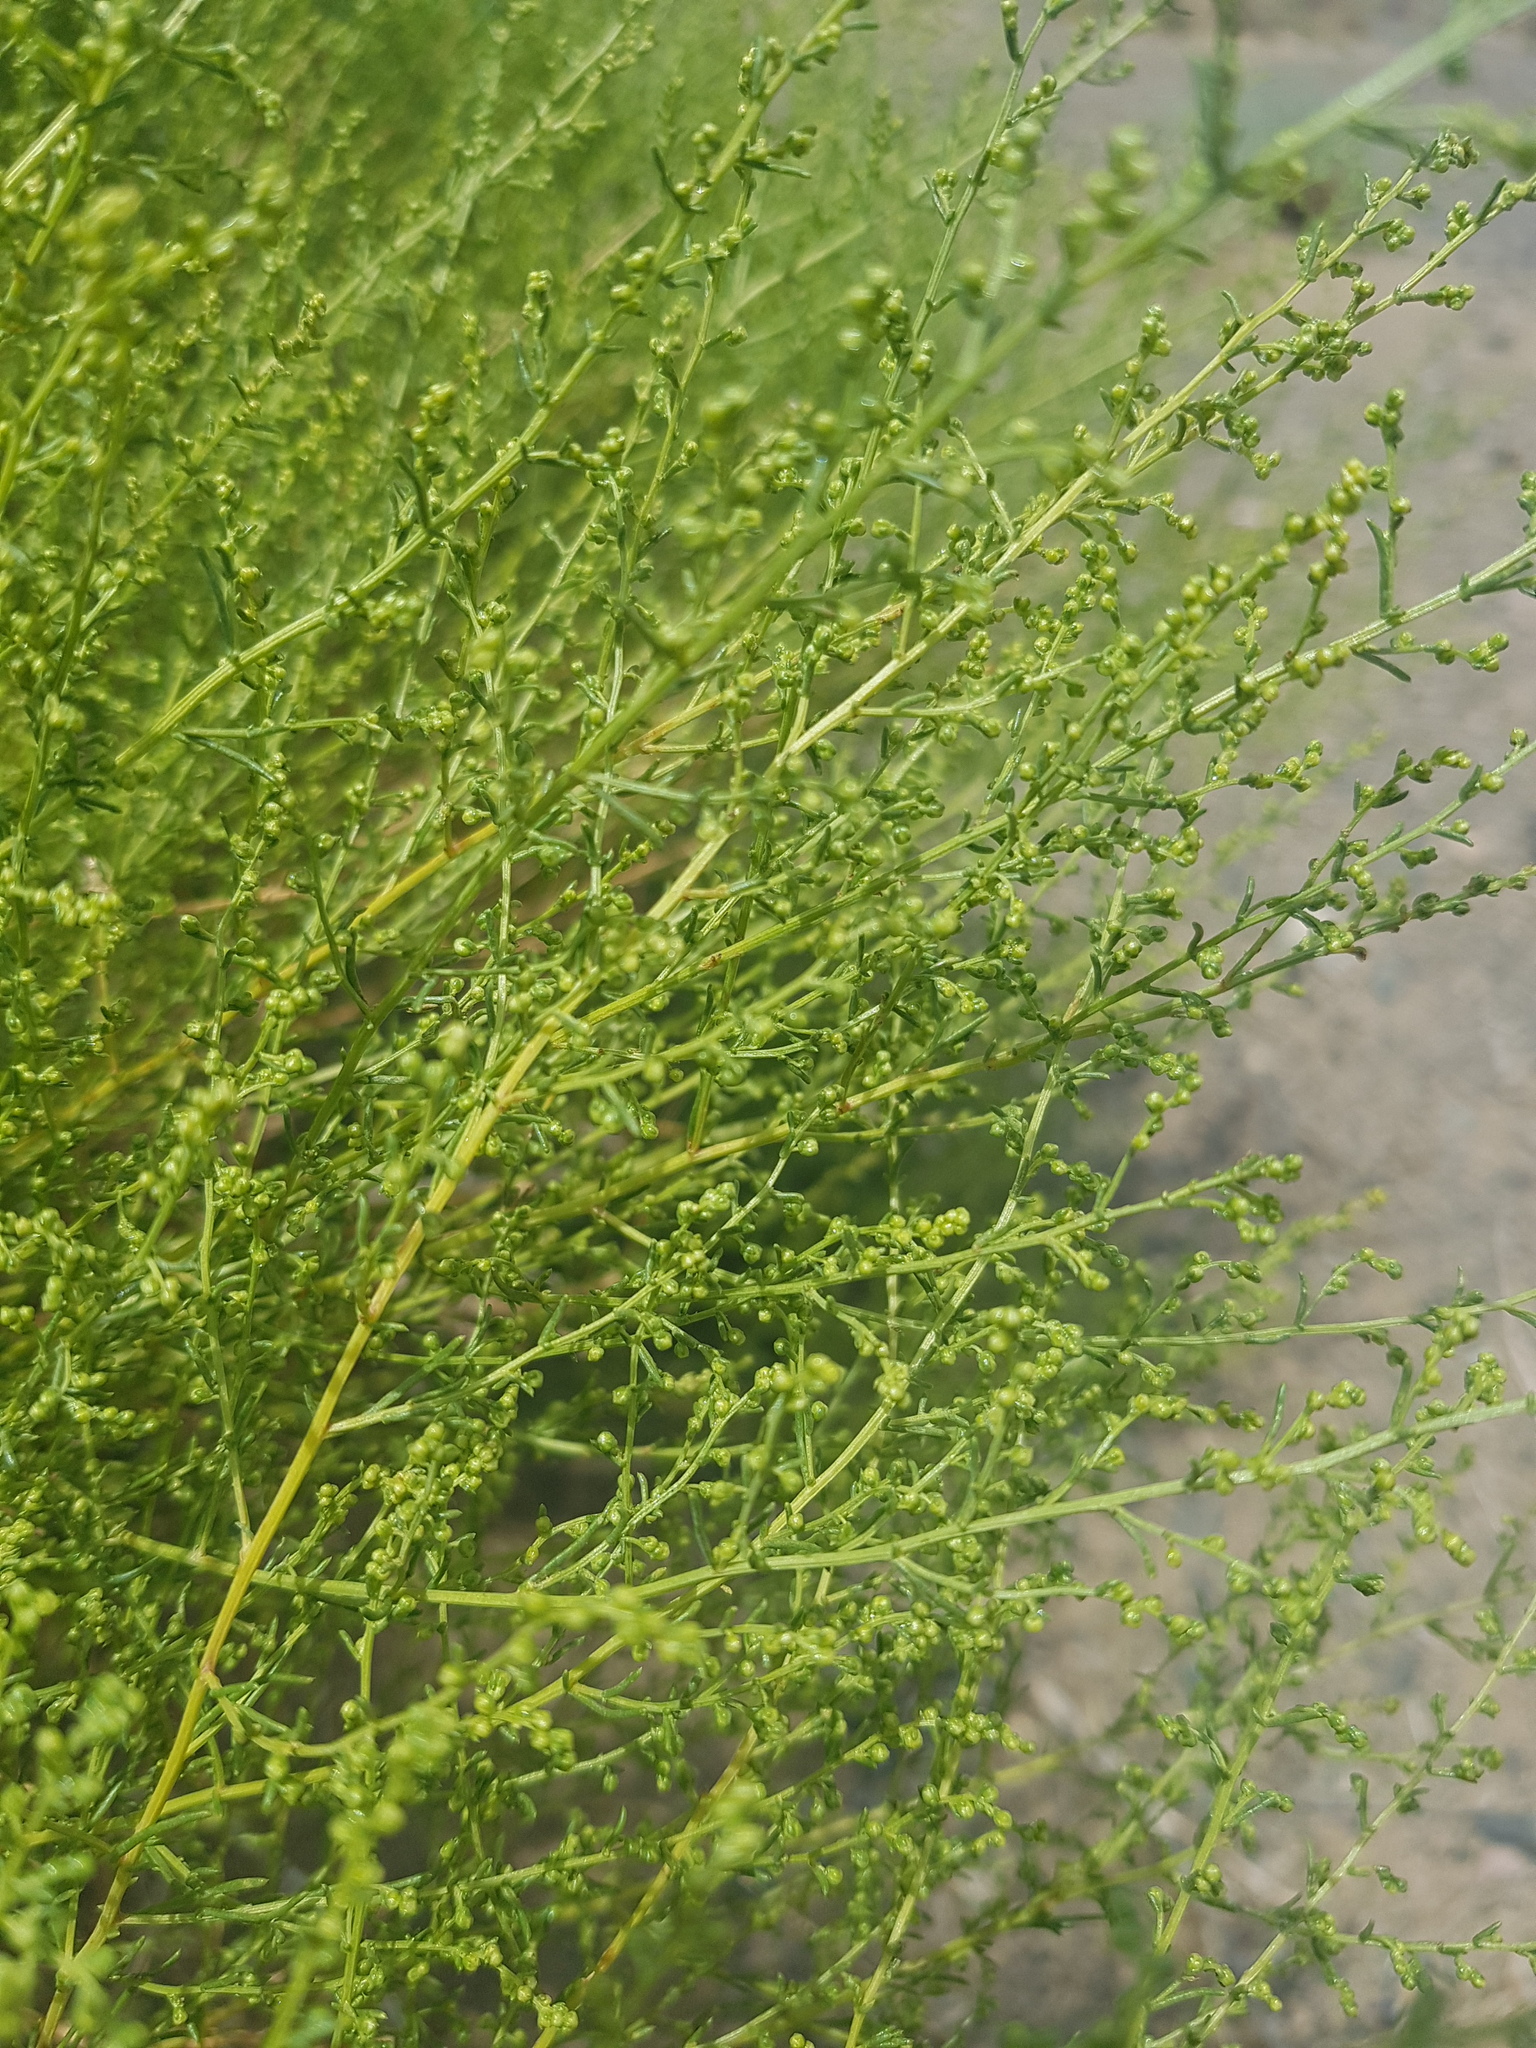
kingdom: Plantae
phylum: Tracheophyta
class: Magnoliopsida
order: Asterales
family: Asteraceae
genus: Artemisia
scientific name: Artemisia xanthochloa
